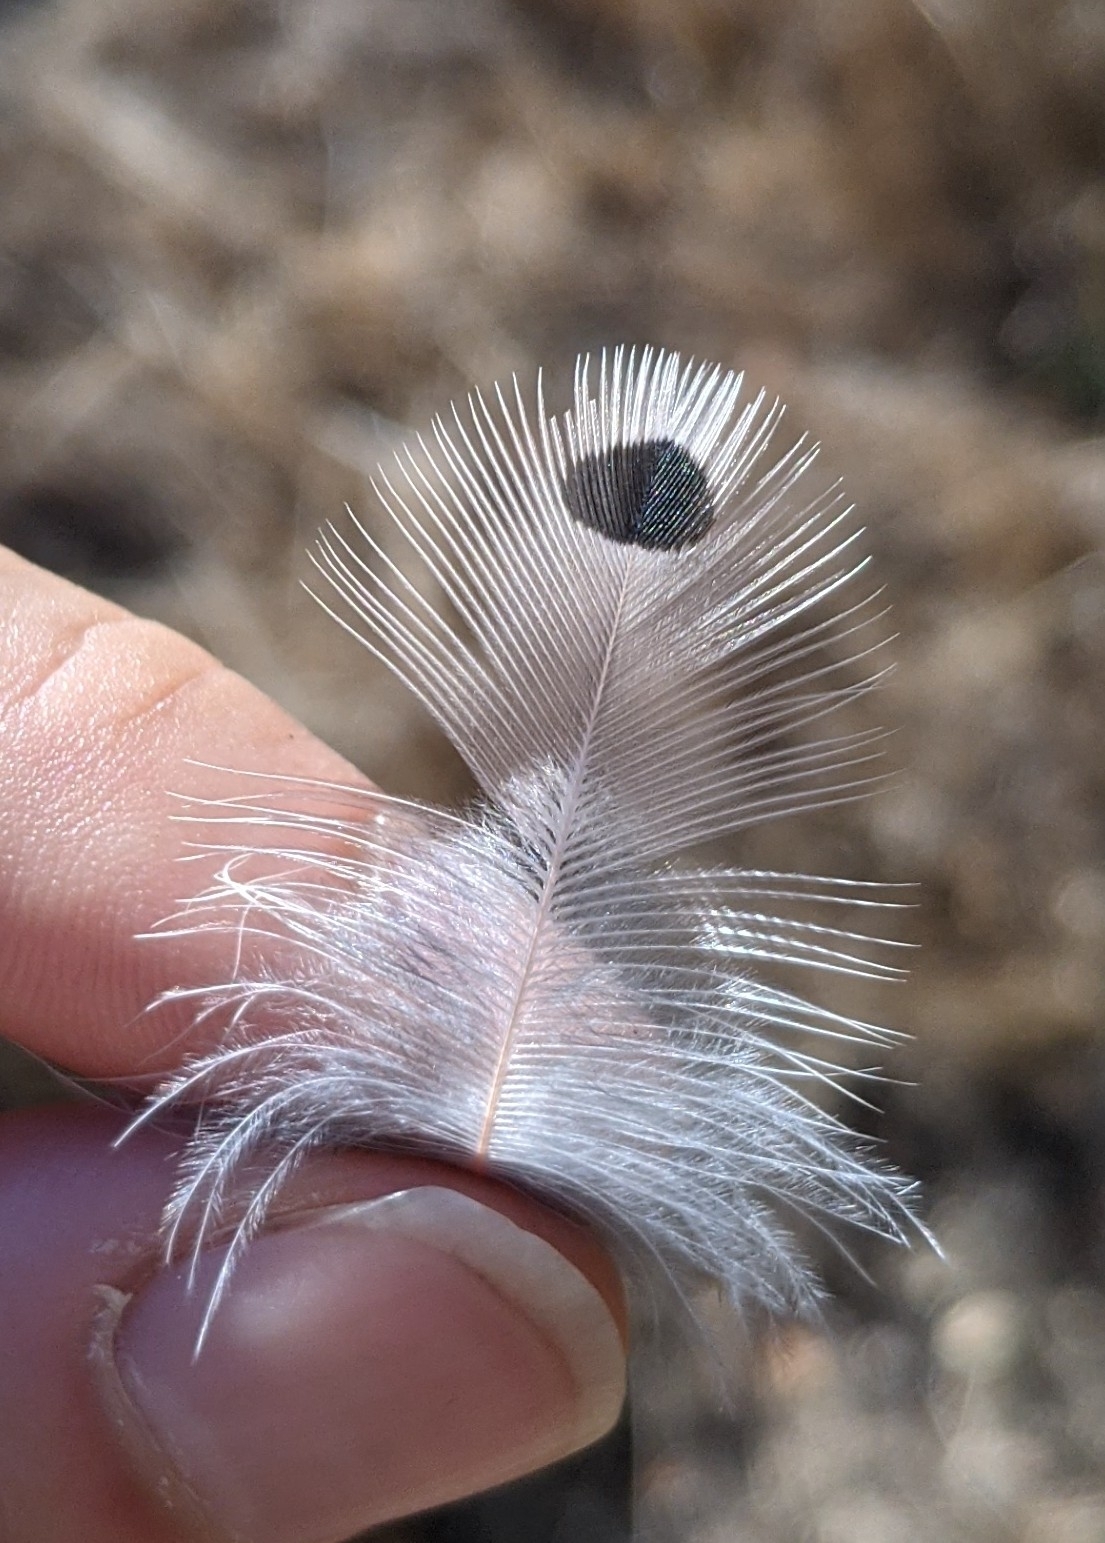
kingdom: Animalia
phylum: Chordata
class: Aves
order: Piciformes
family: Picidae
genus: Colaptes
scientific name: Colaptes auratus
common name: Northern flicker
